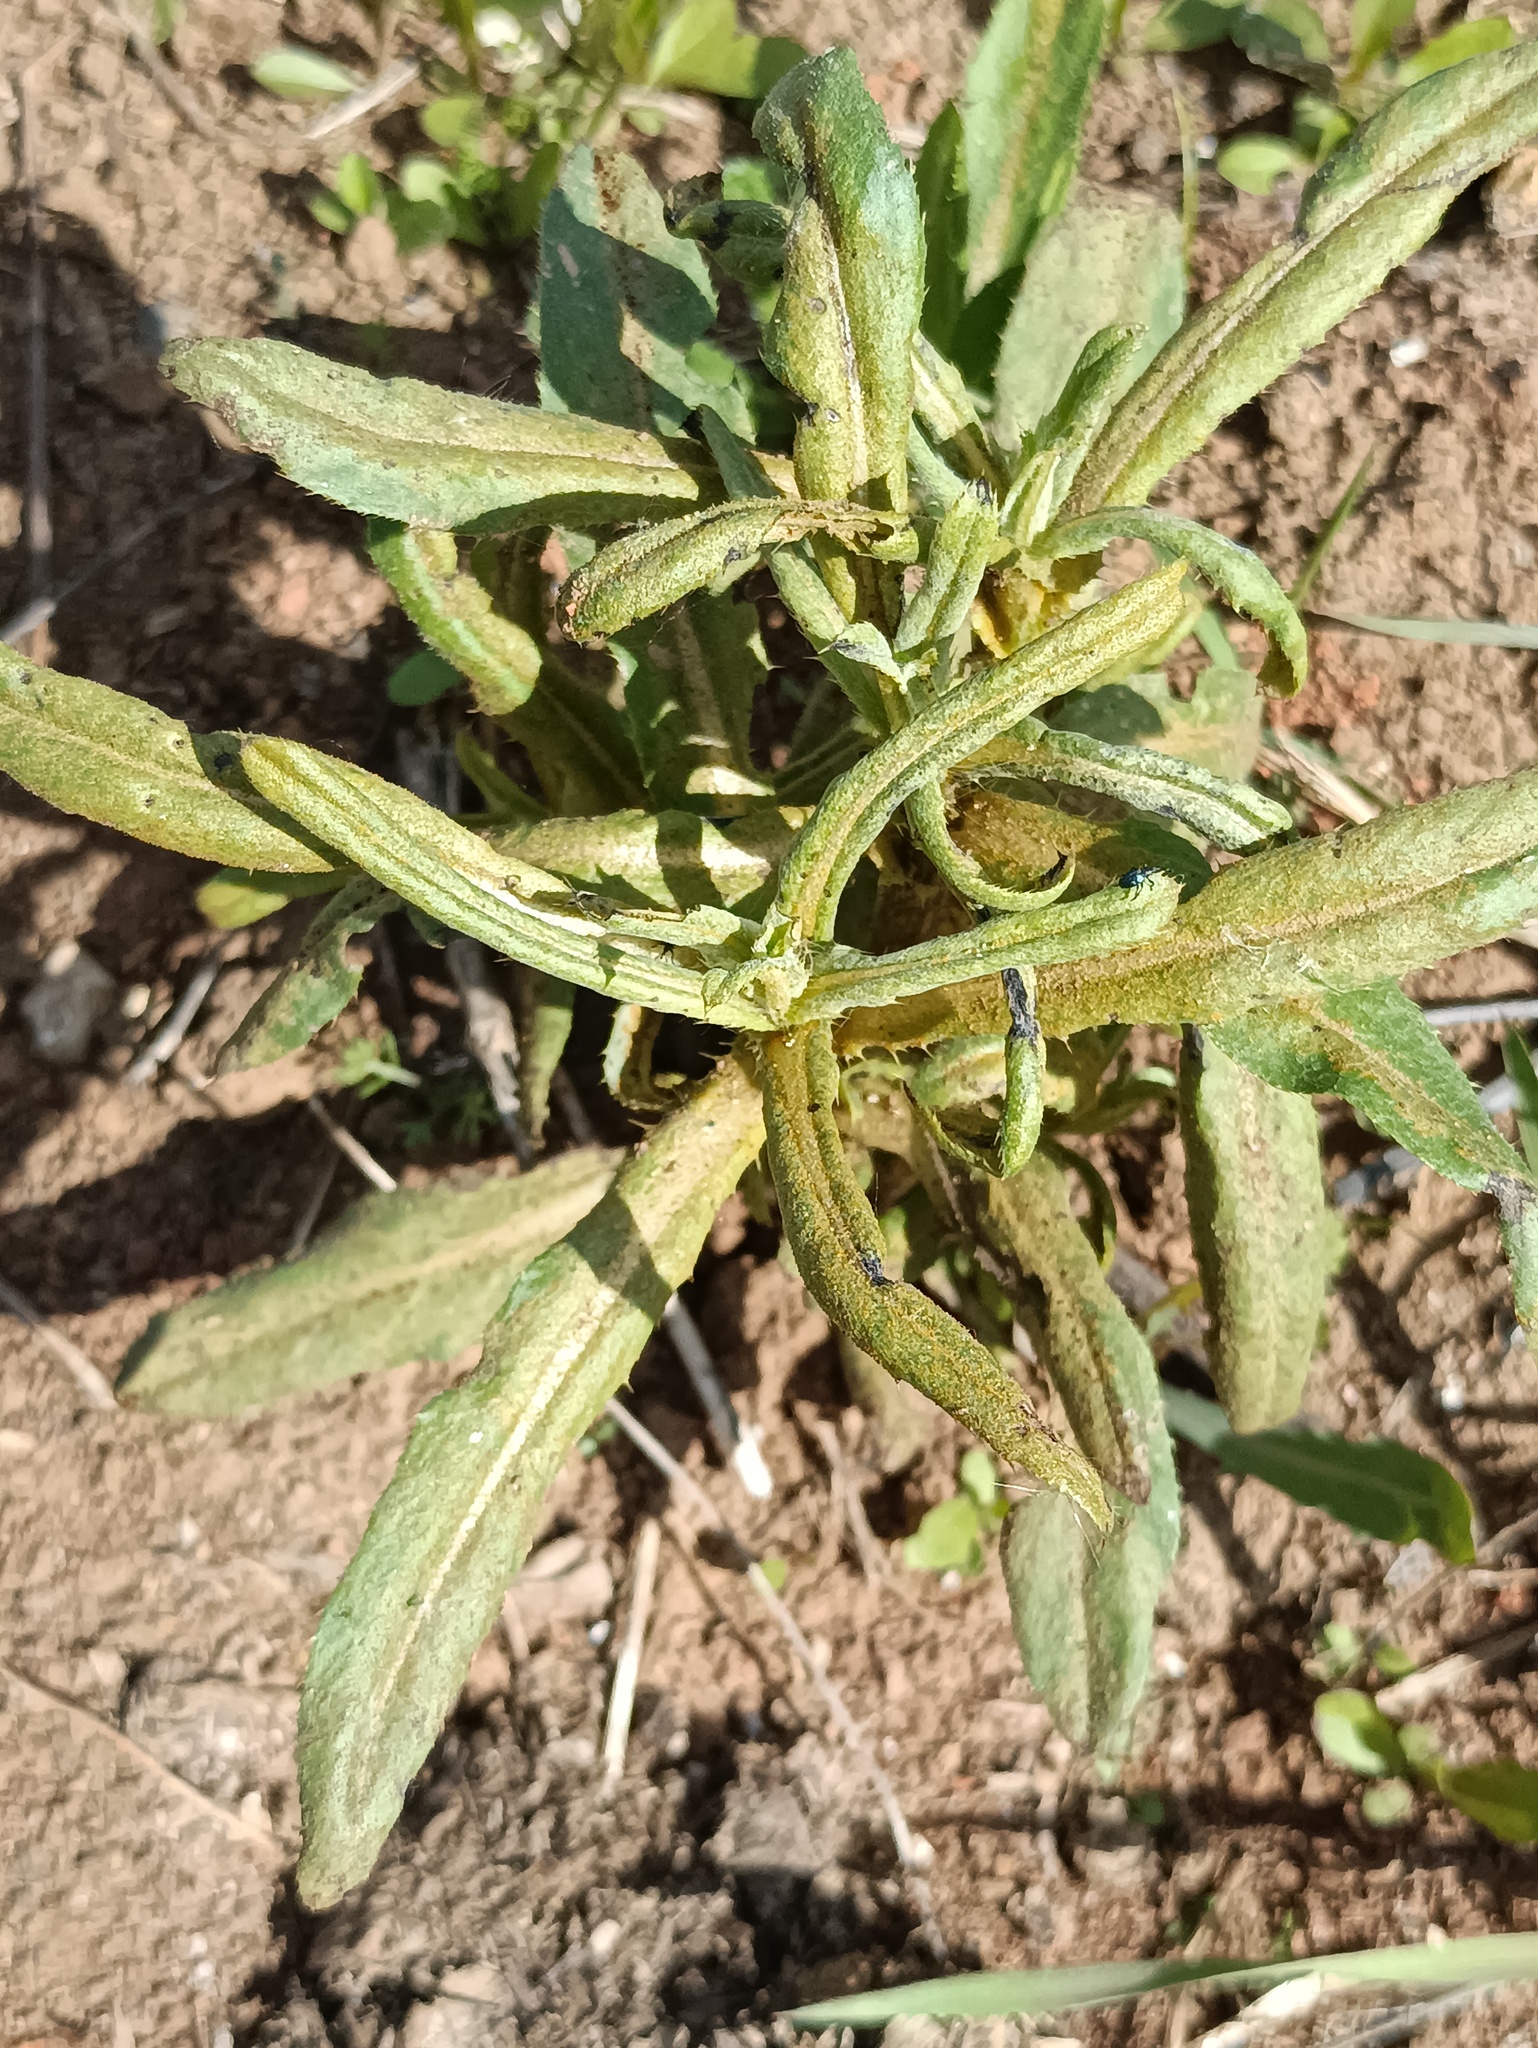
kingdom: Fungi
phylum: Basidiomycota
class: Pucciniomycetes
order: Pucciniales
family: Pucciniaceae
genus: Puccinia
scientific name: Puccinia suaveolens
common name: Thistle rust
